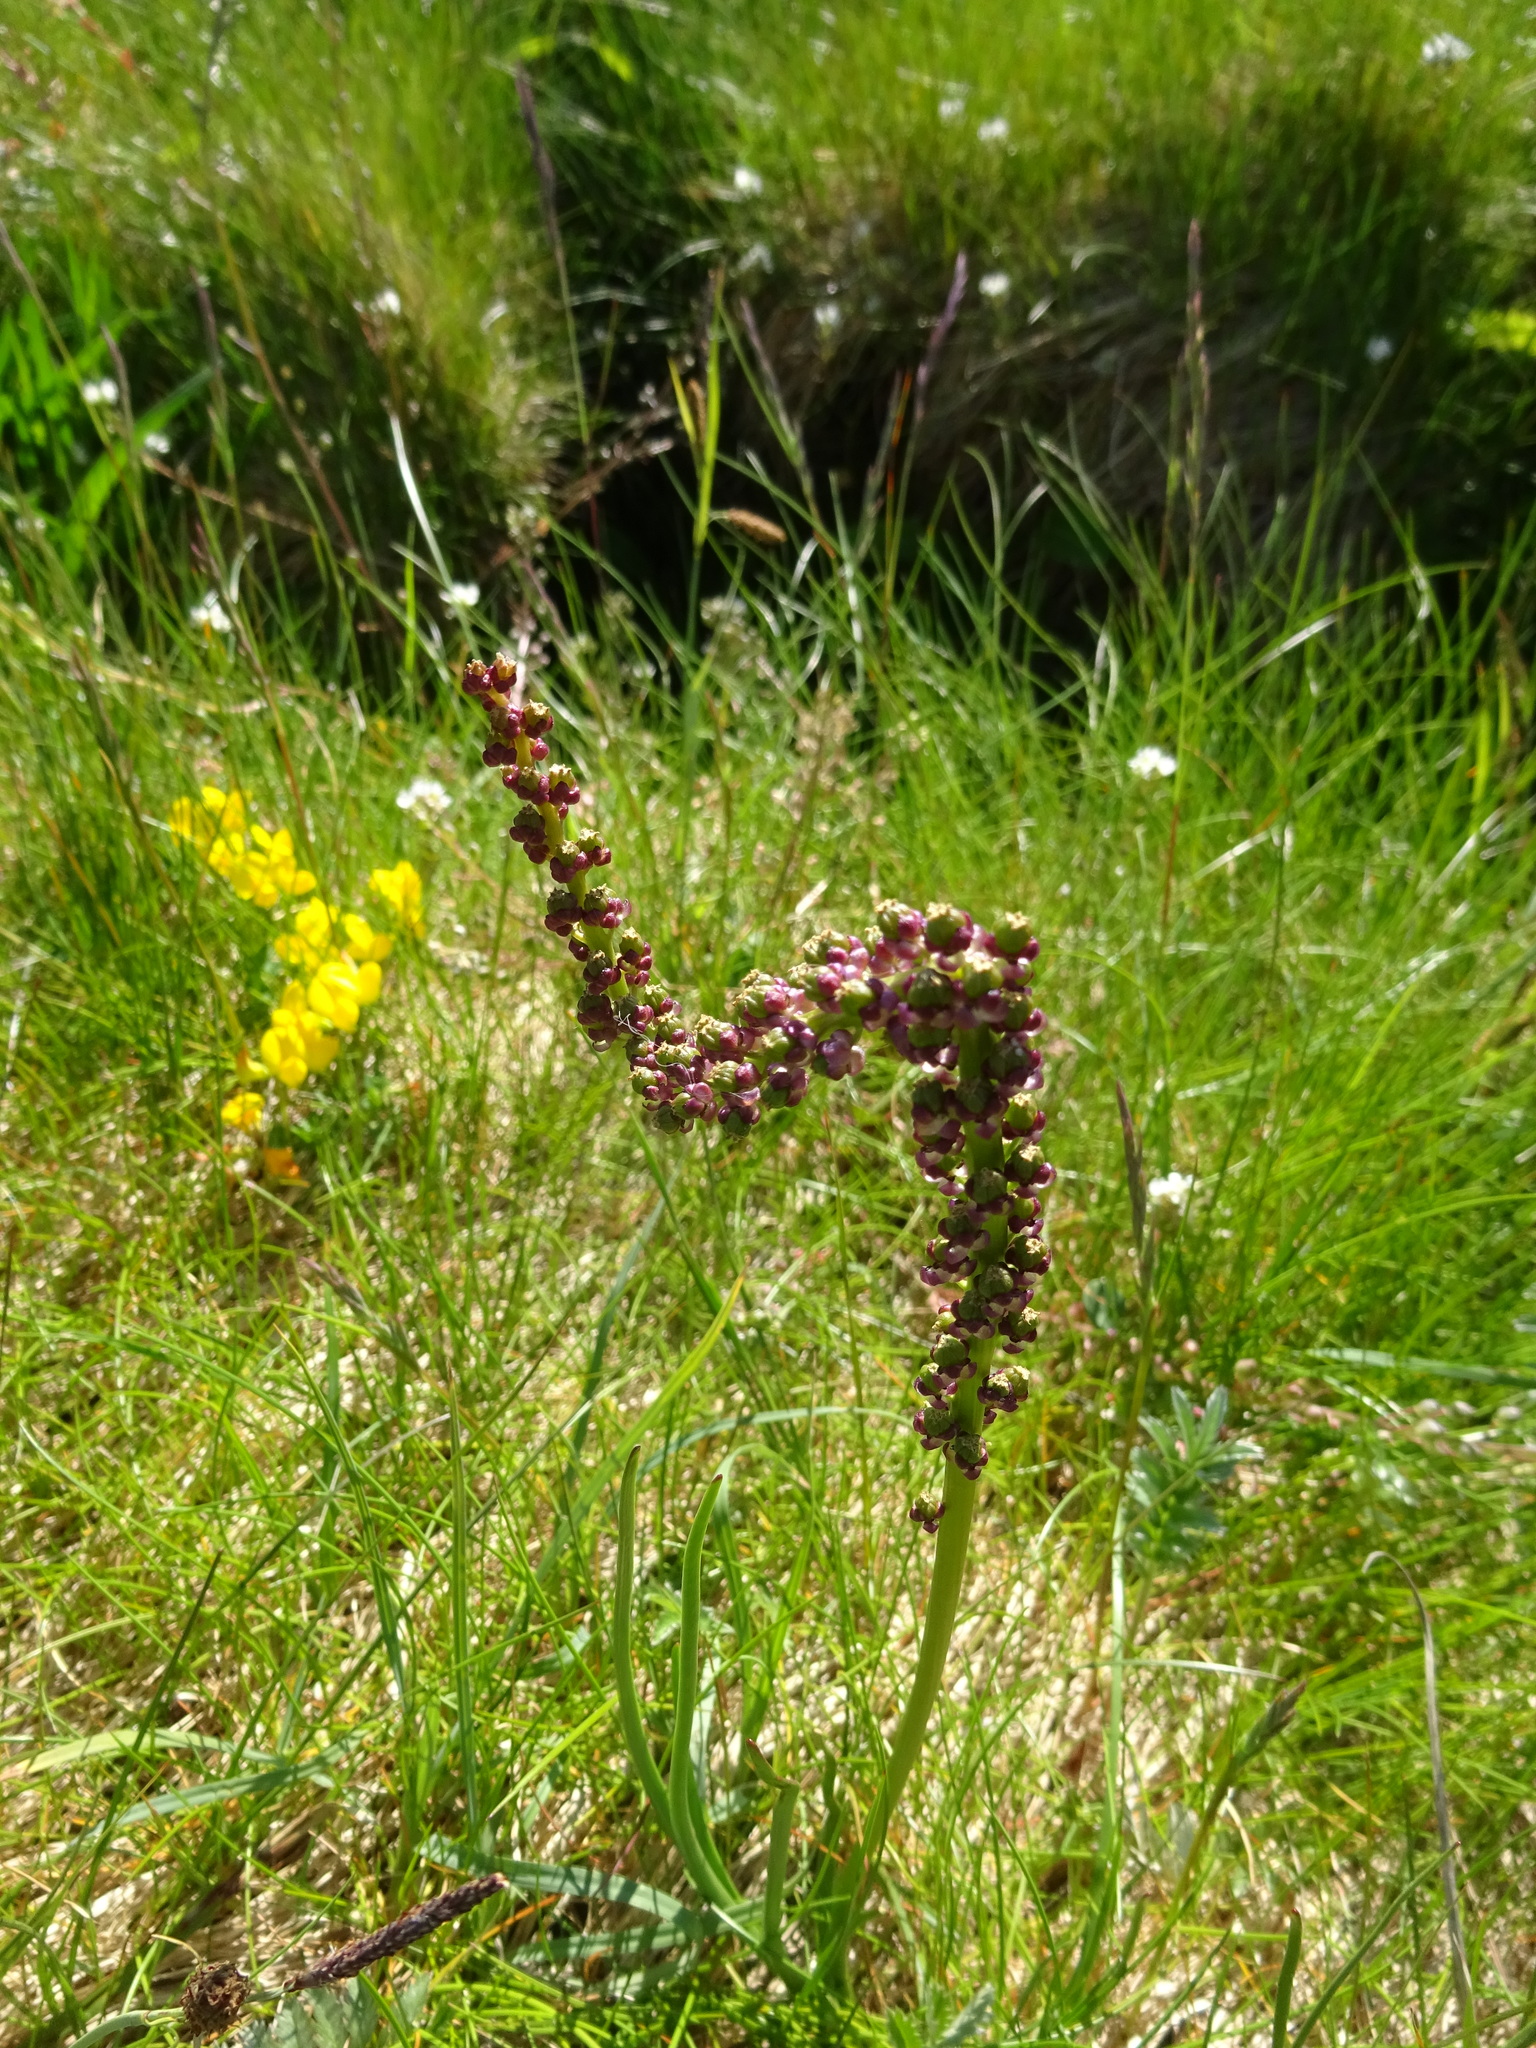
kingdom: Plantae
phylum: Tracheophyta
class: Liliopsida
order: Alismatales
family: Juncaginaceae
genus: Triglochin
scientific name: Triglochin maritima
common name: Sea arrowgrass
